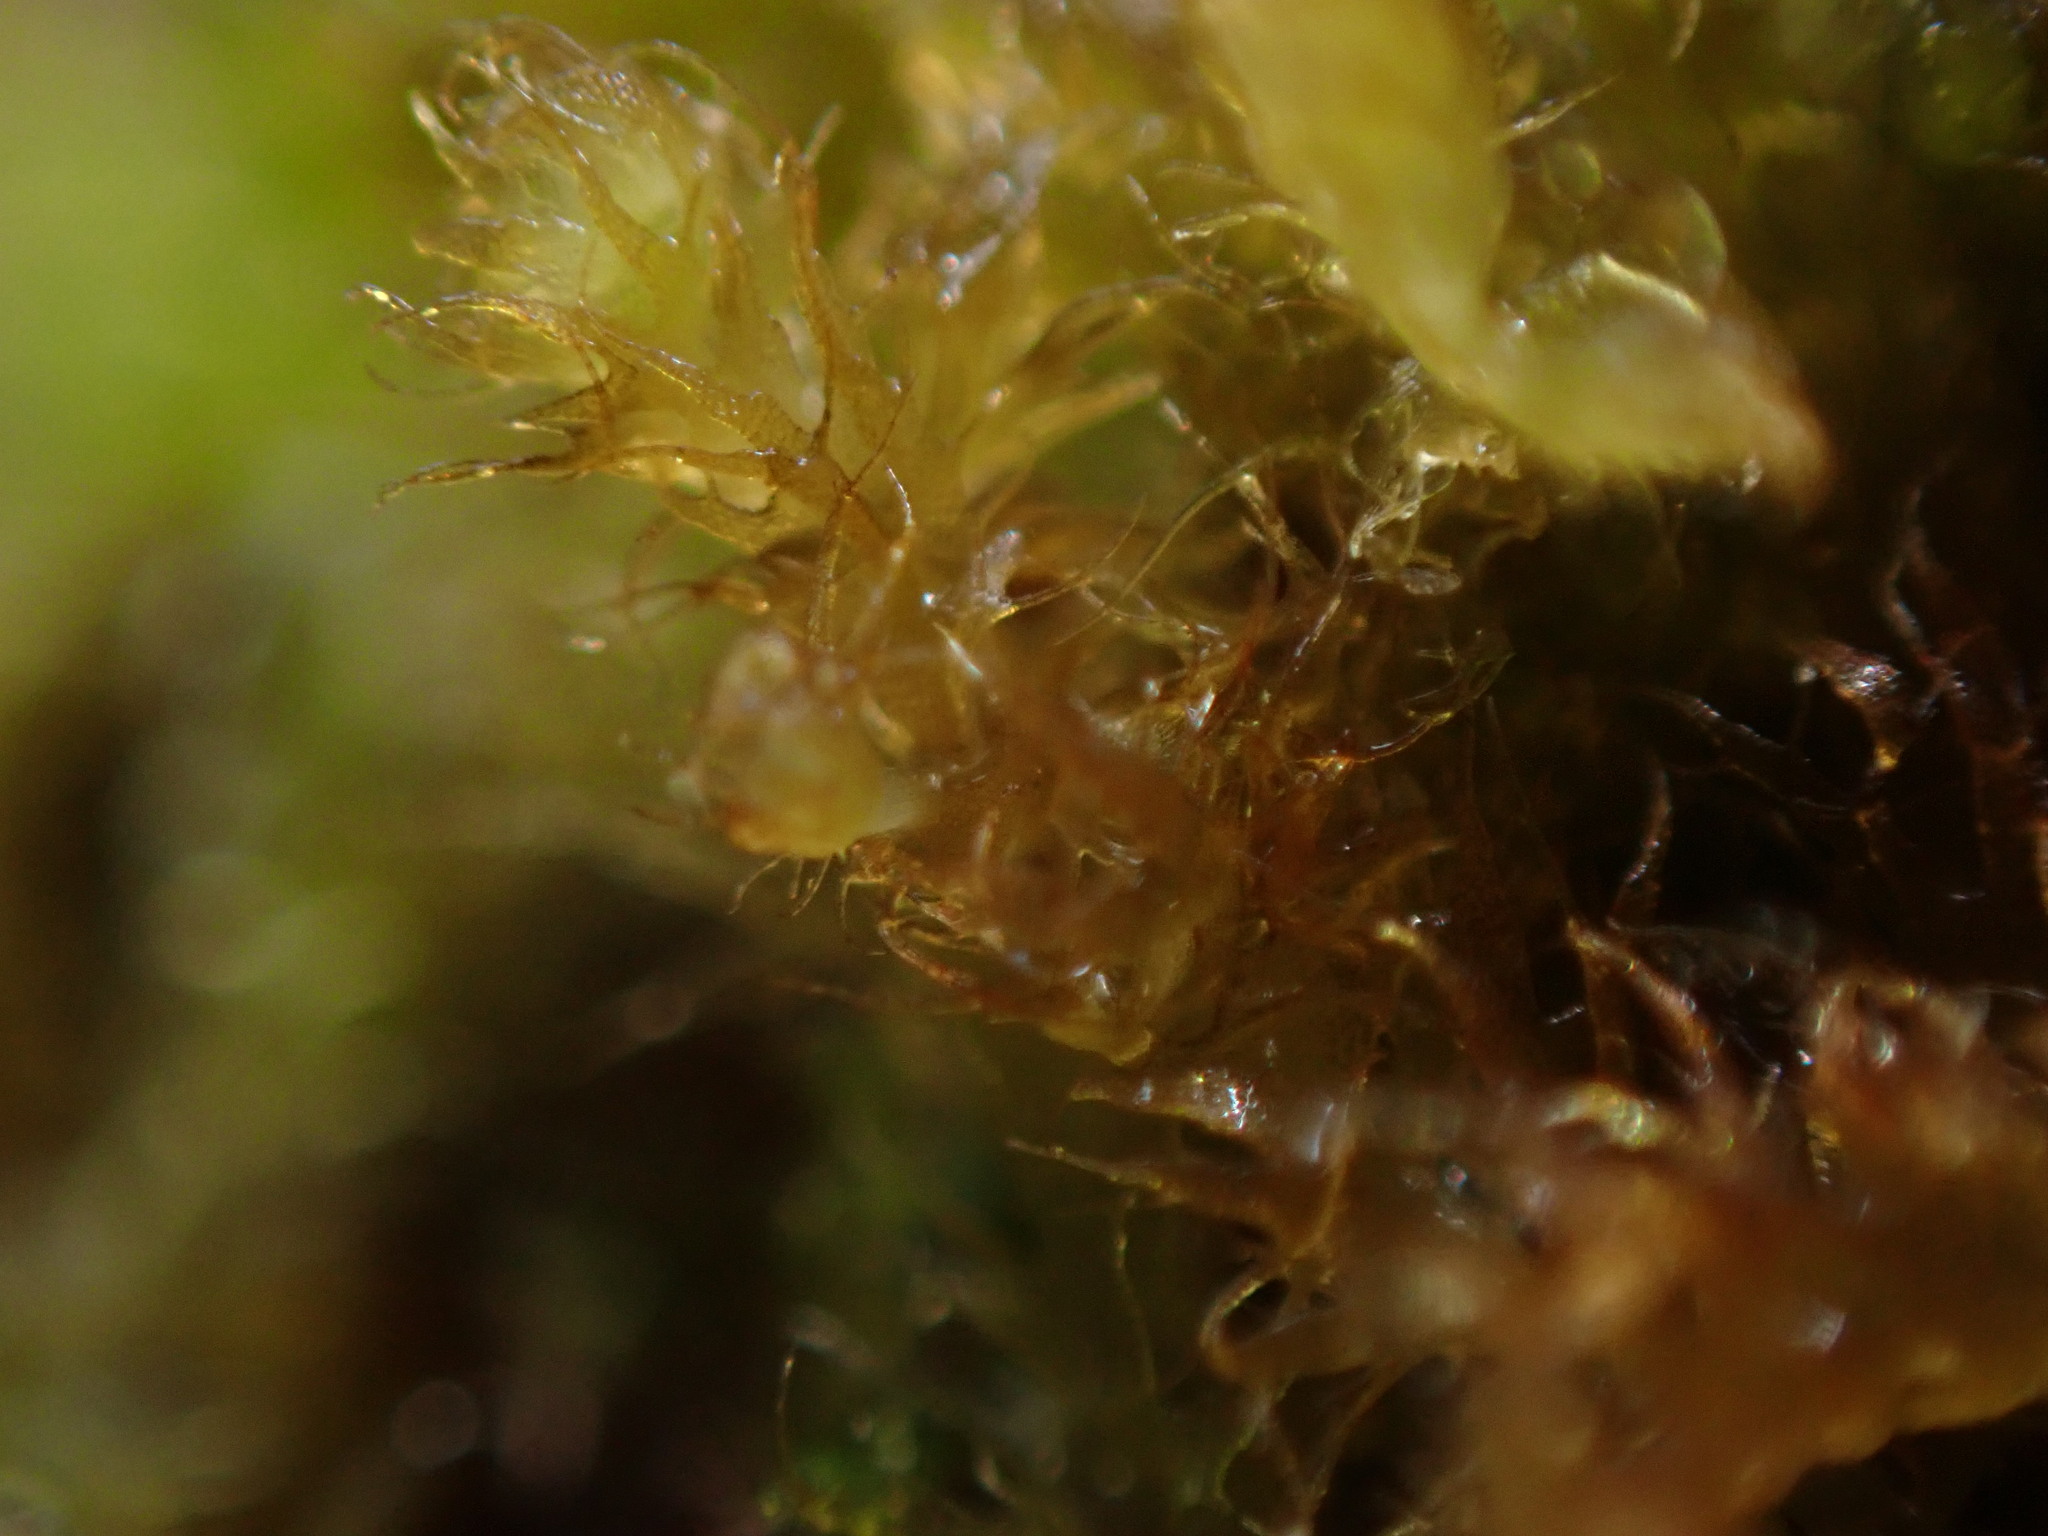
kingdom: Plantae
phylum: Marchantiophyta
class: Jungermanniopsida
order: Ptilidiales
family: Ptilidiaceae
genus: Ptilidium
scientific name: Ptilidium californicum
